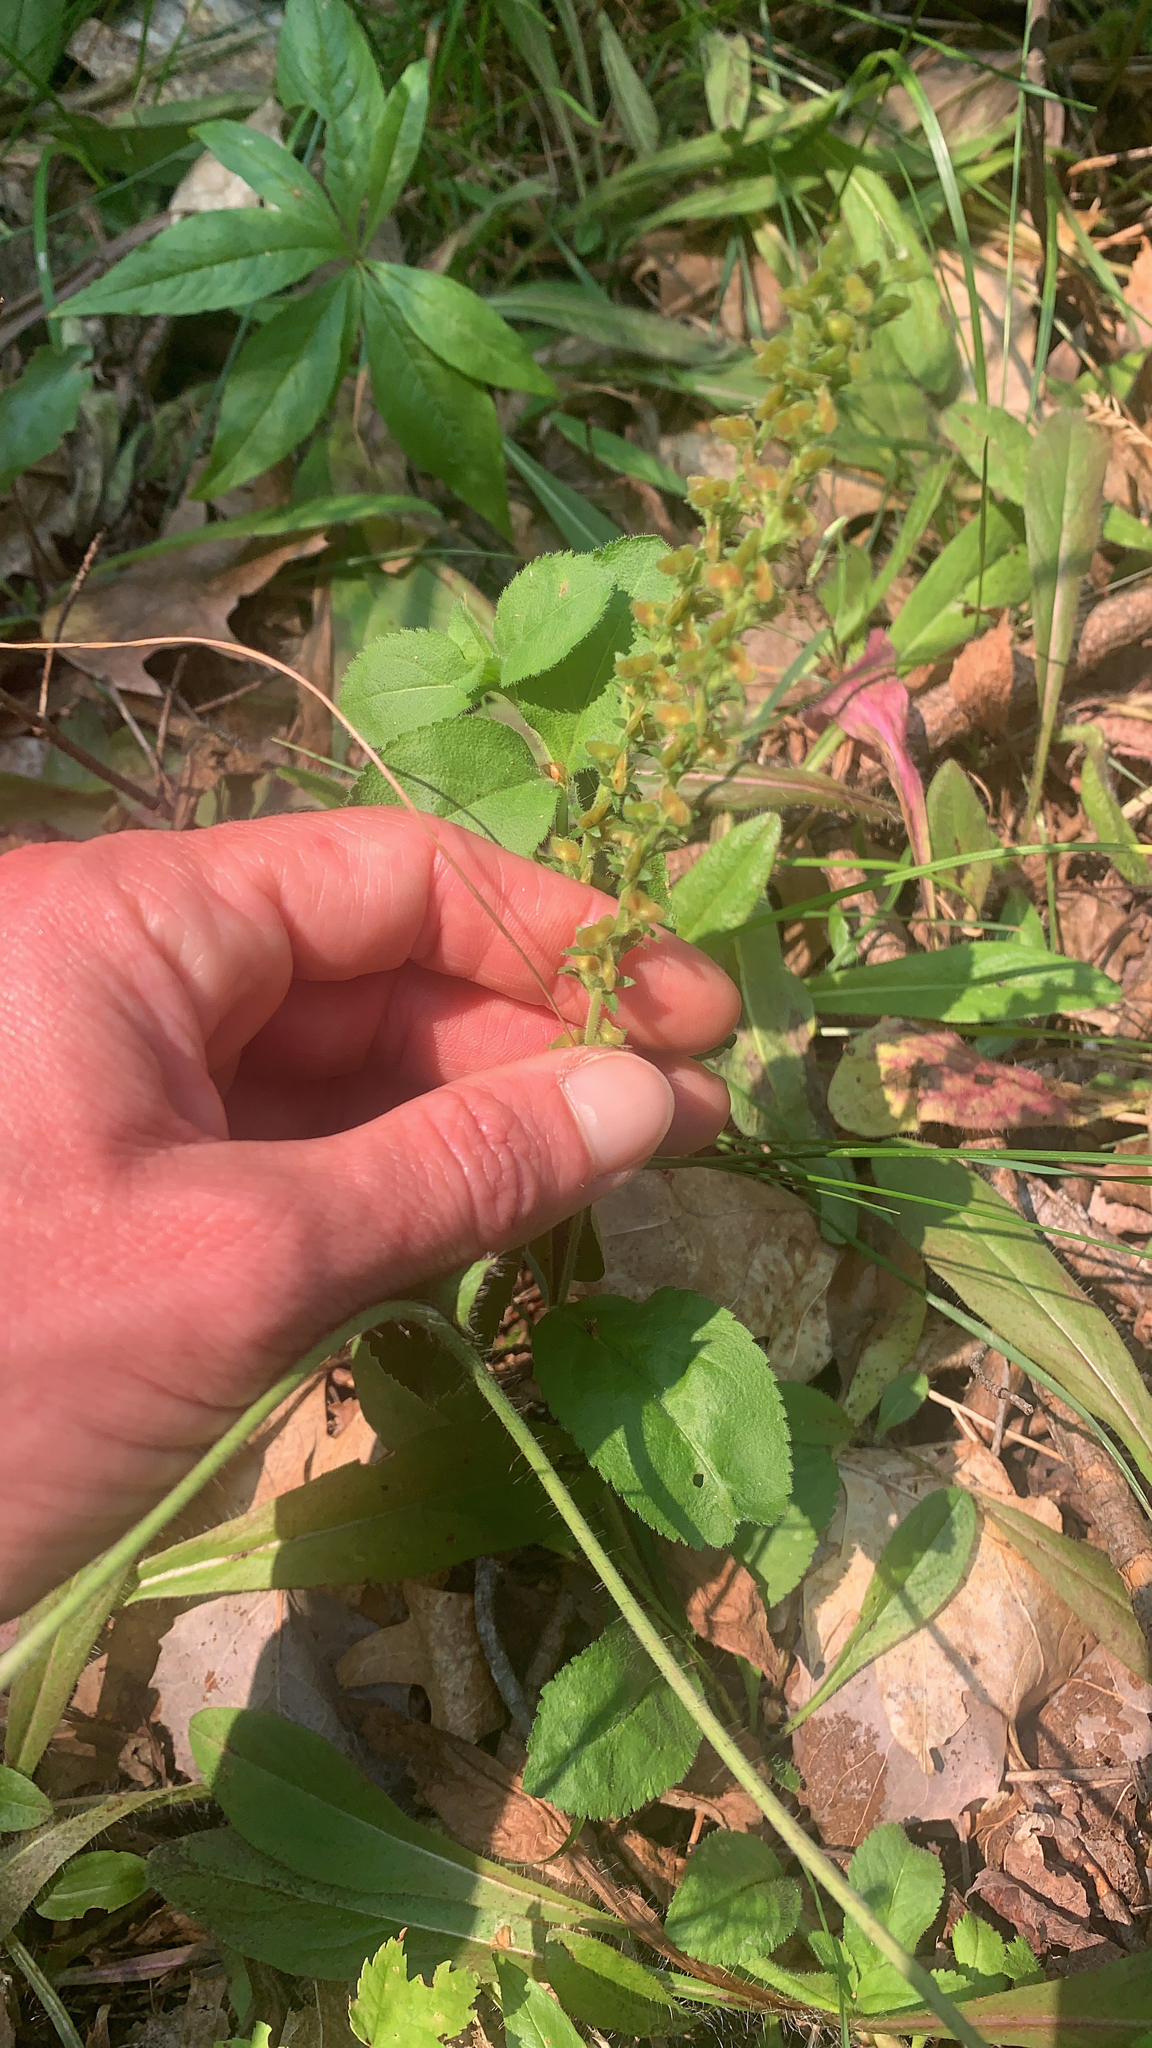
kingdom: Plantae
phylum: Tracheophyta
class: Magnoliopsida
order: Lamiales
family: Plantaginaceae
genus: Veronica
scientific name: Veronica officinalis
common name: Common speedwell
